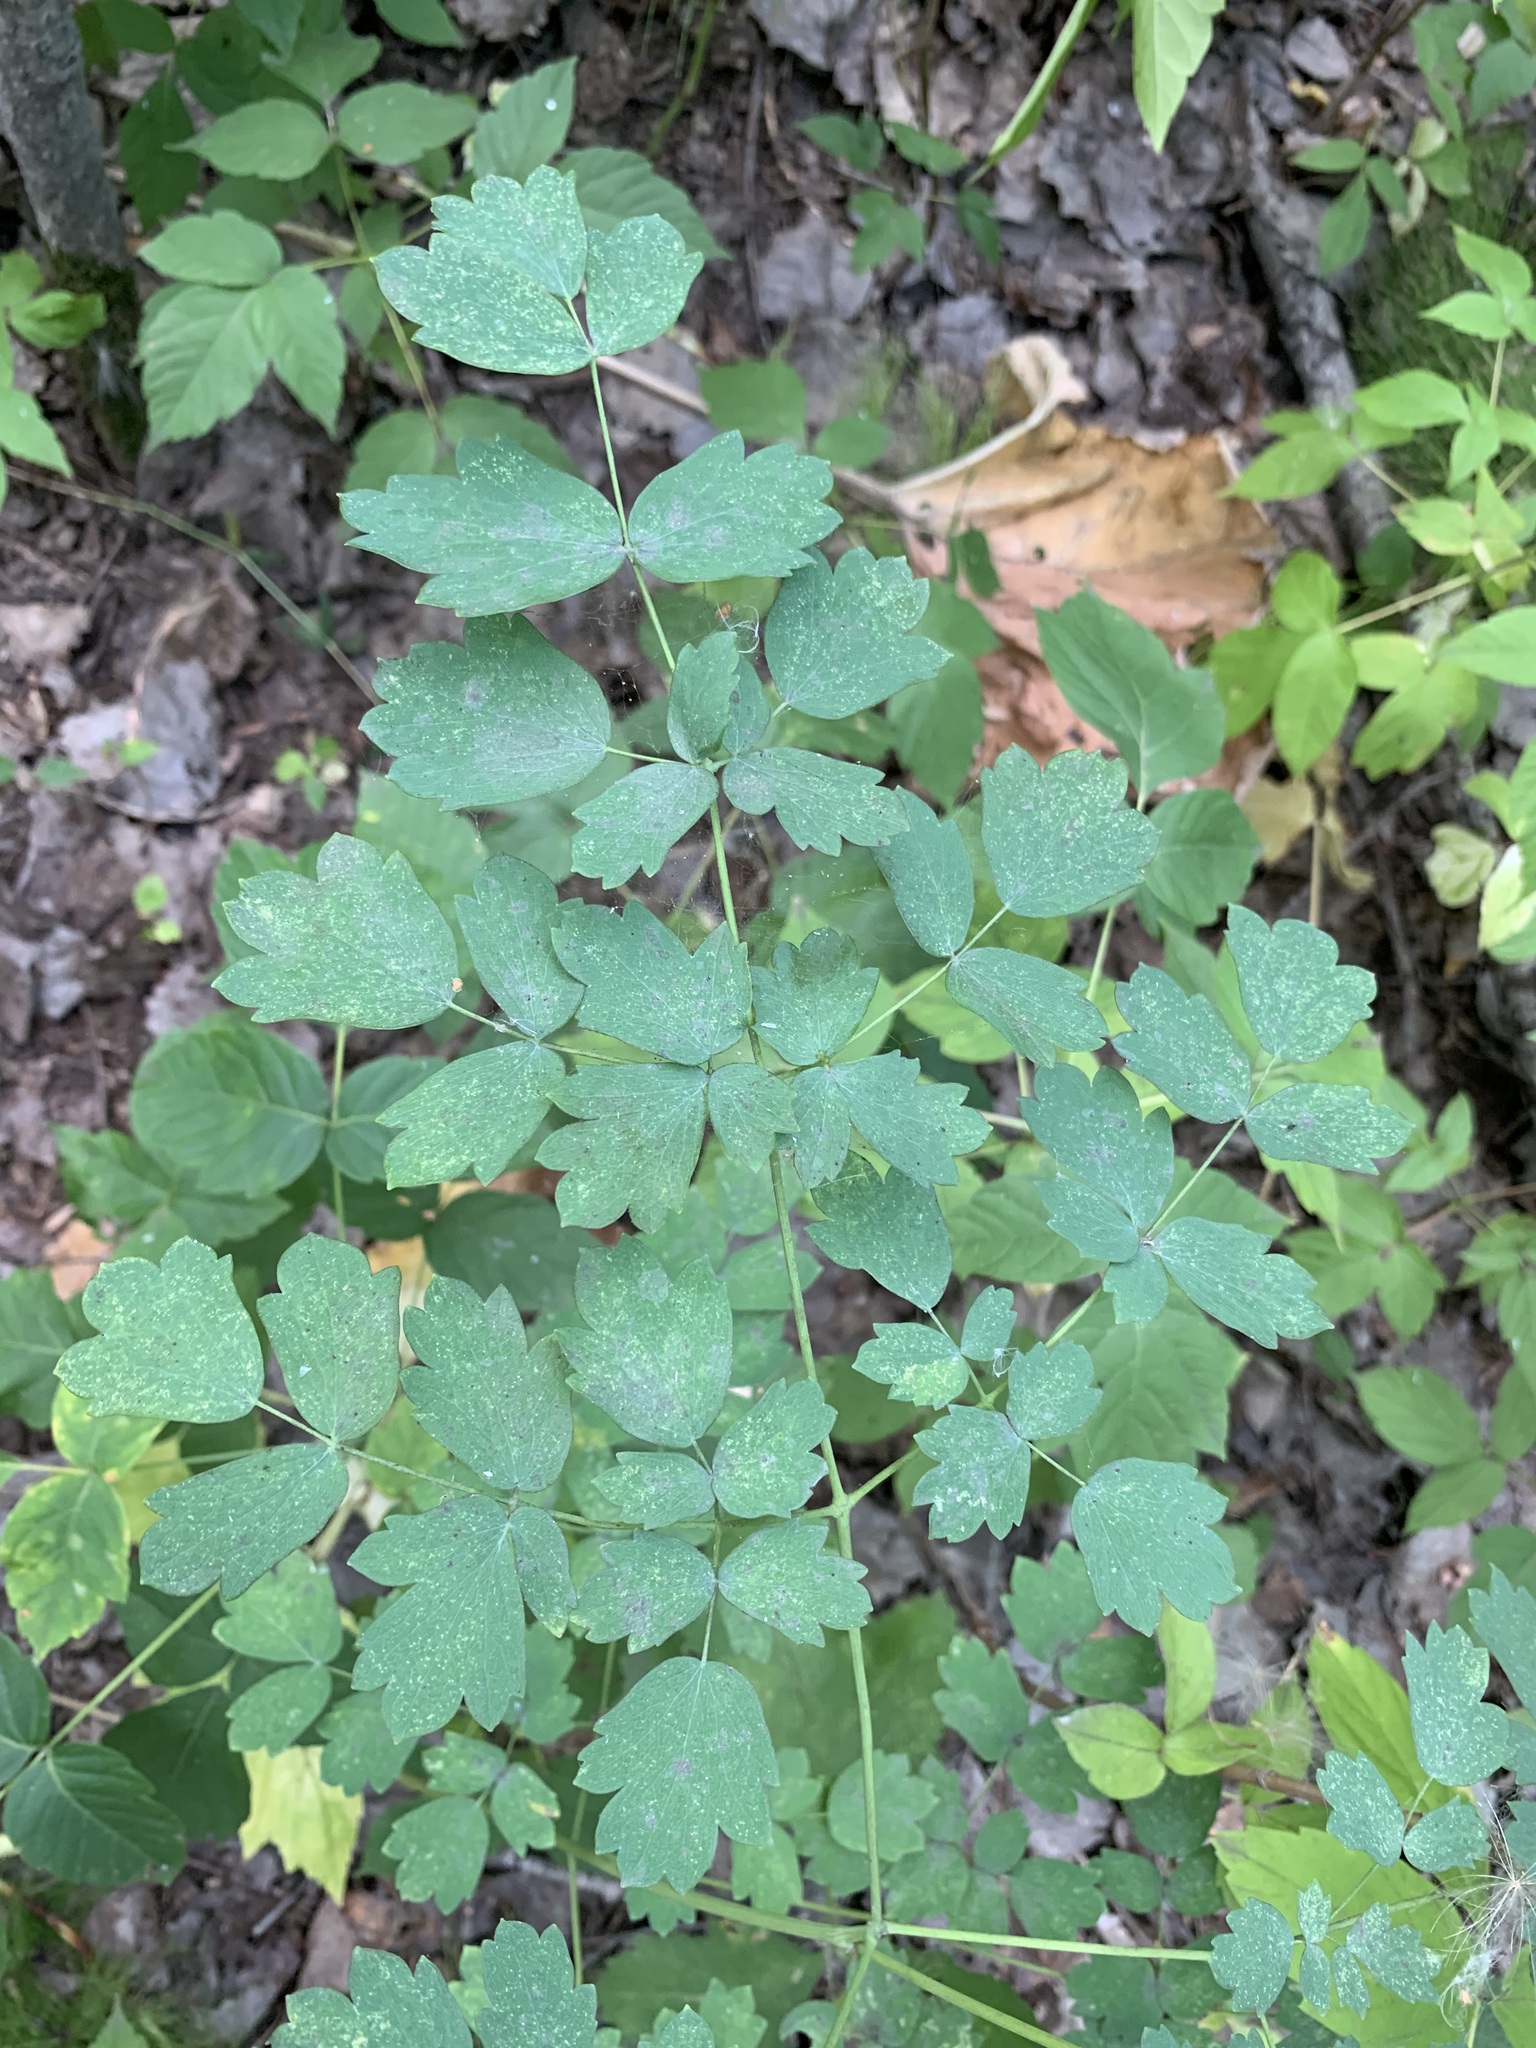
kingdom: Plantae
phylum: Tracheophyta
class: Magnoliopsida
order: Ranunculales
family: Ranunculaceae
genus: Thalictrum
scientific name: Thalictrum minus
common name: Lesser meadow-rue
